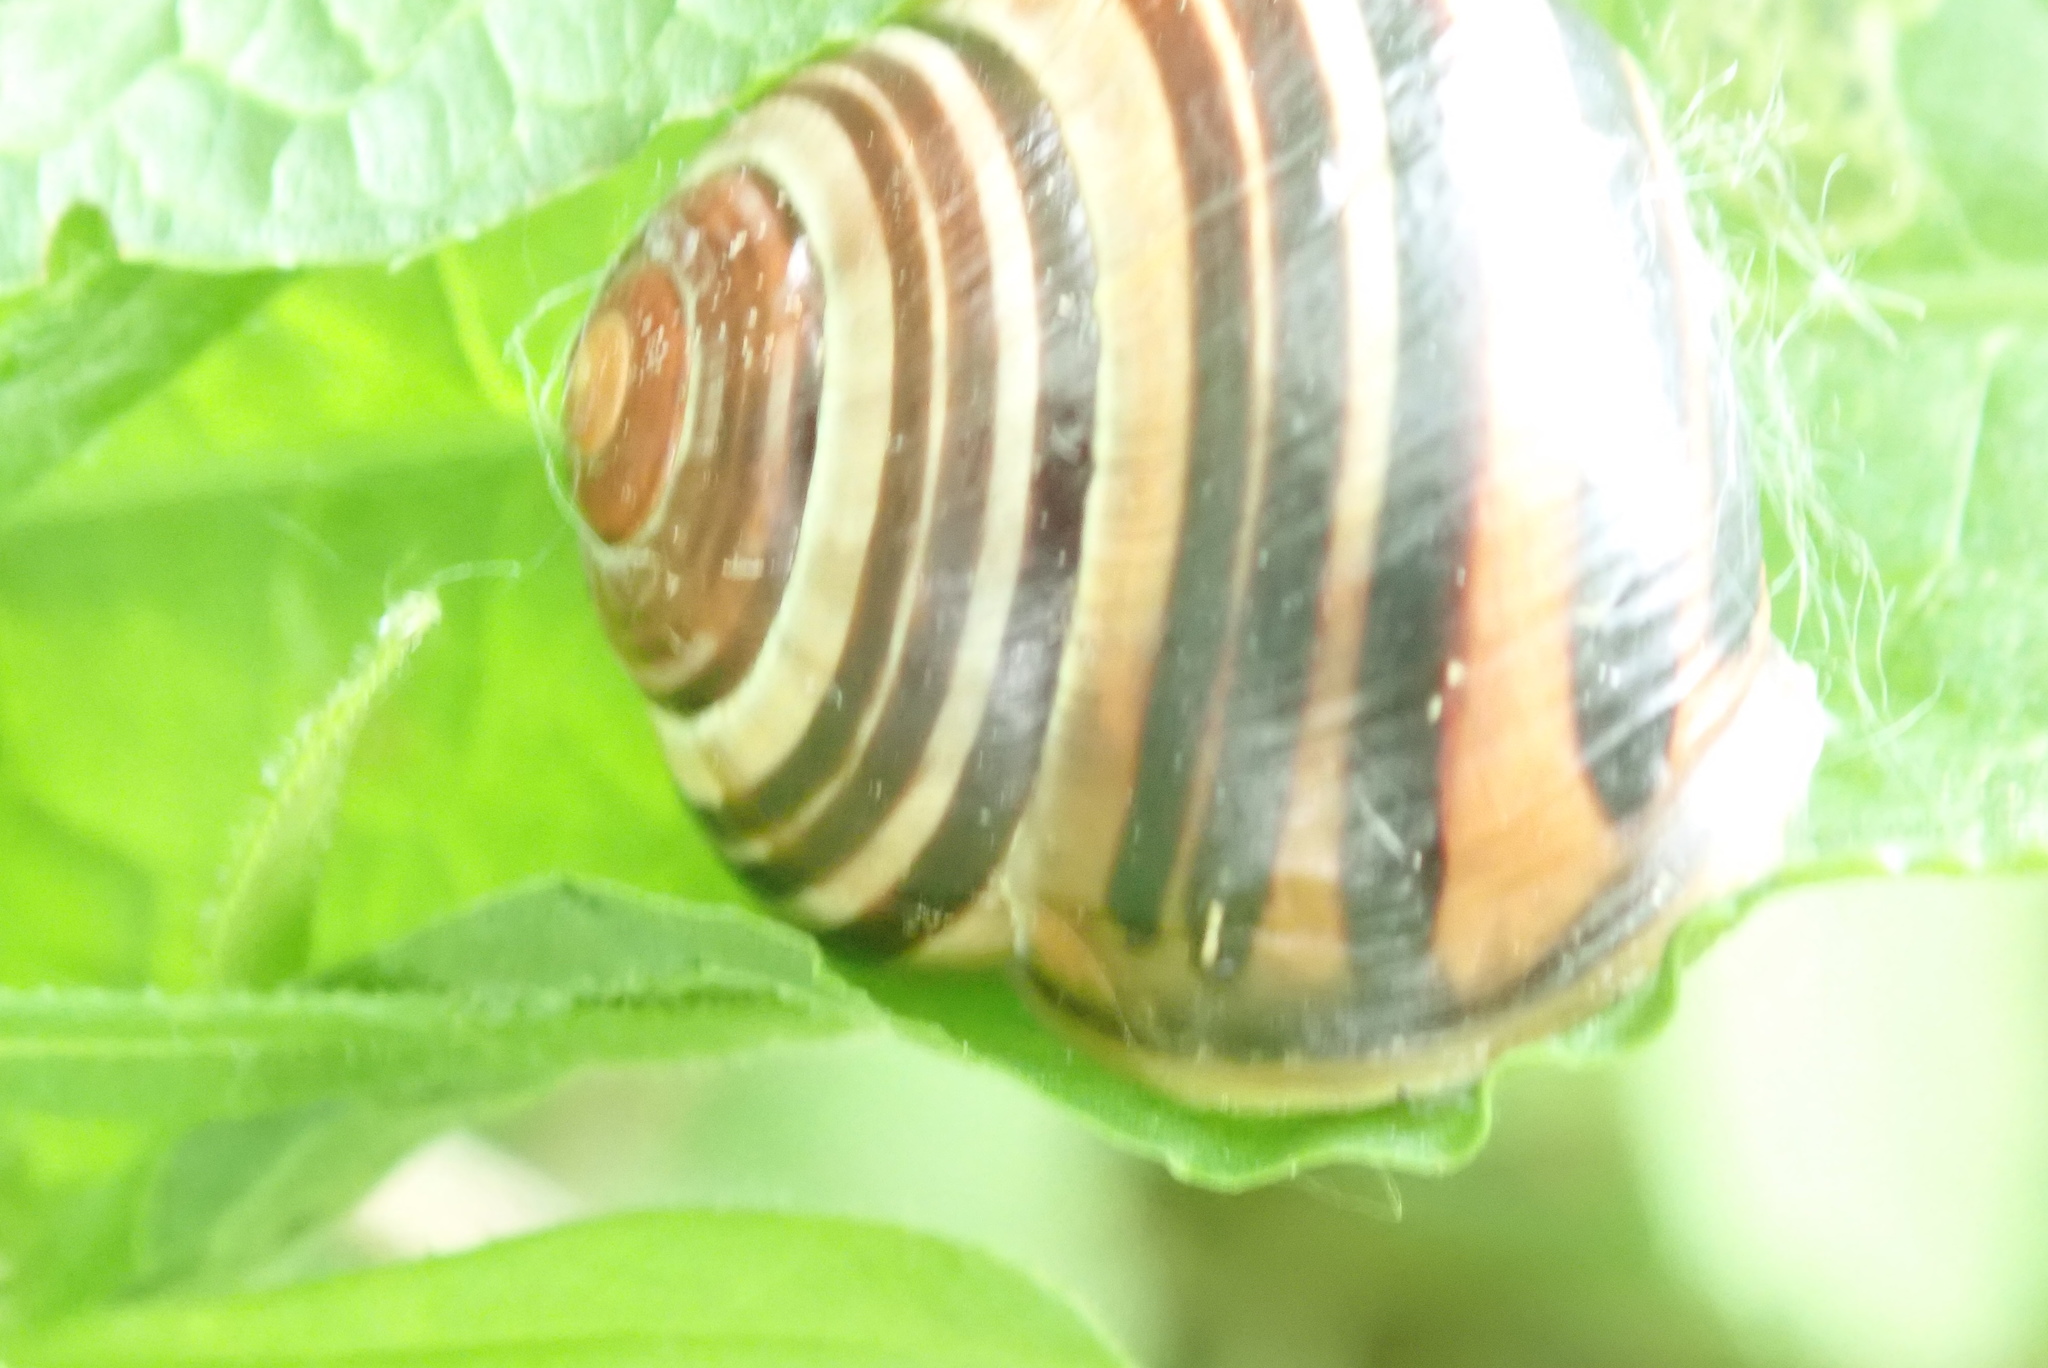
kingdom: Animalia
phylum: Mollusca
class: Gastropoda
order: Stylommatophora
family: Helicidae
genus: Cepaea
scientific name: Cepaea nemoralis
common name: Grovesnail
